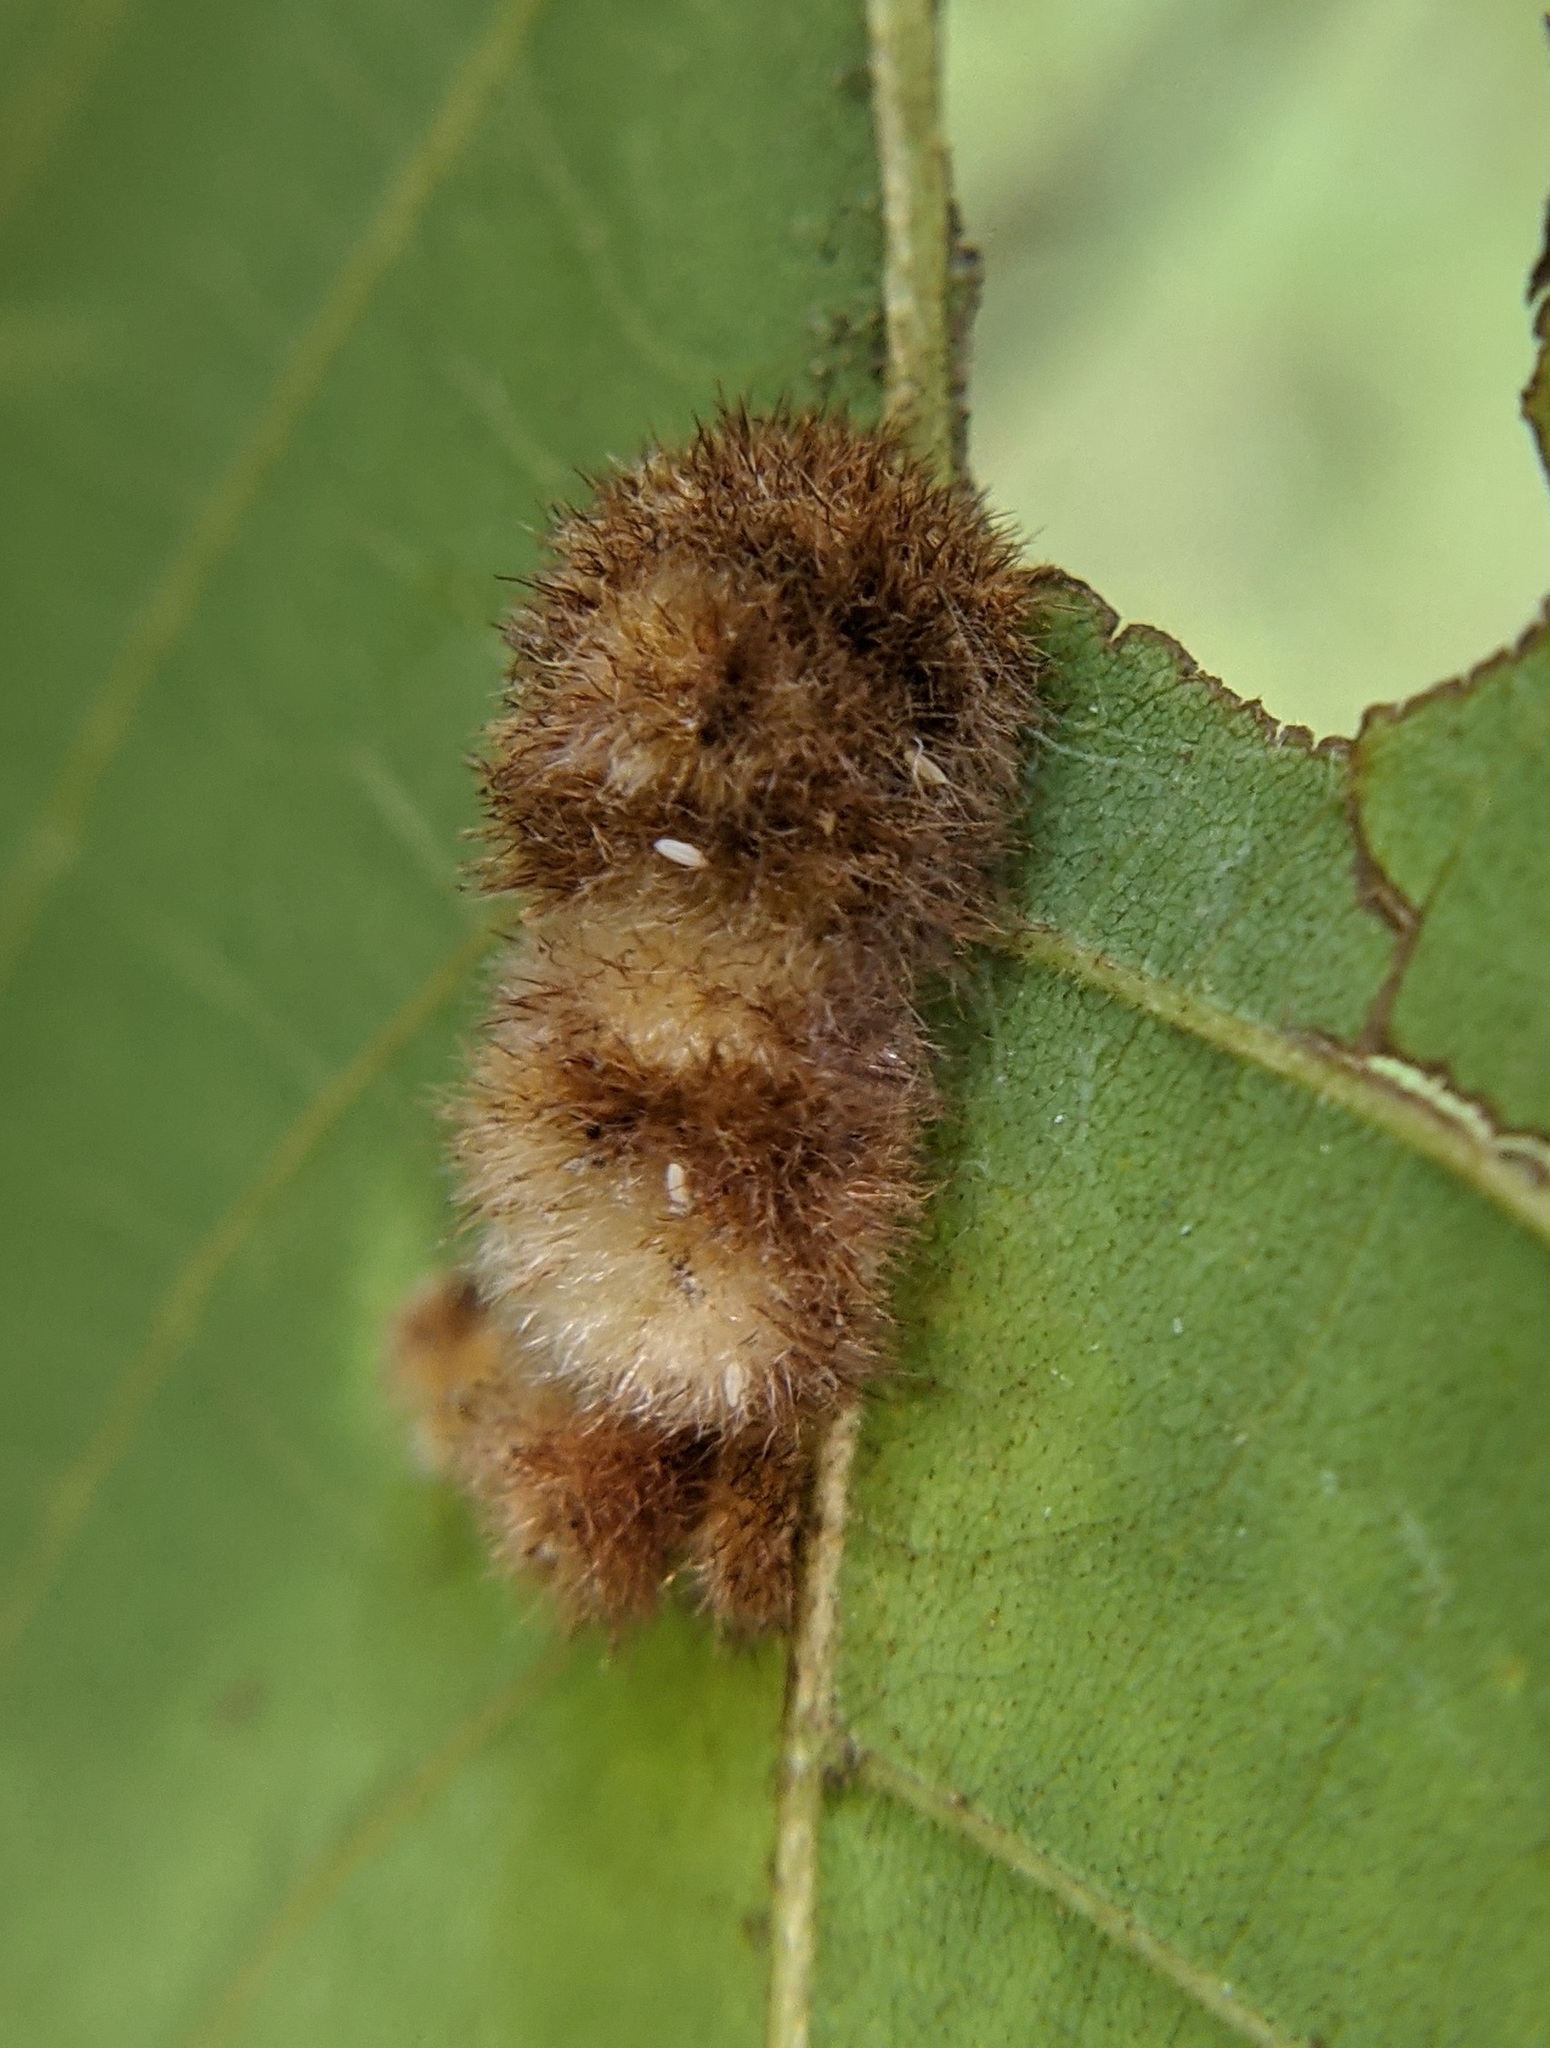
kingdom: Animalia
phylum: Arthropoda
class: Insecta
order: Diptera
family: Cecidomyiidae
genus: Caryomyia
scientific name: Caryomyia aggregata
